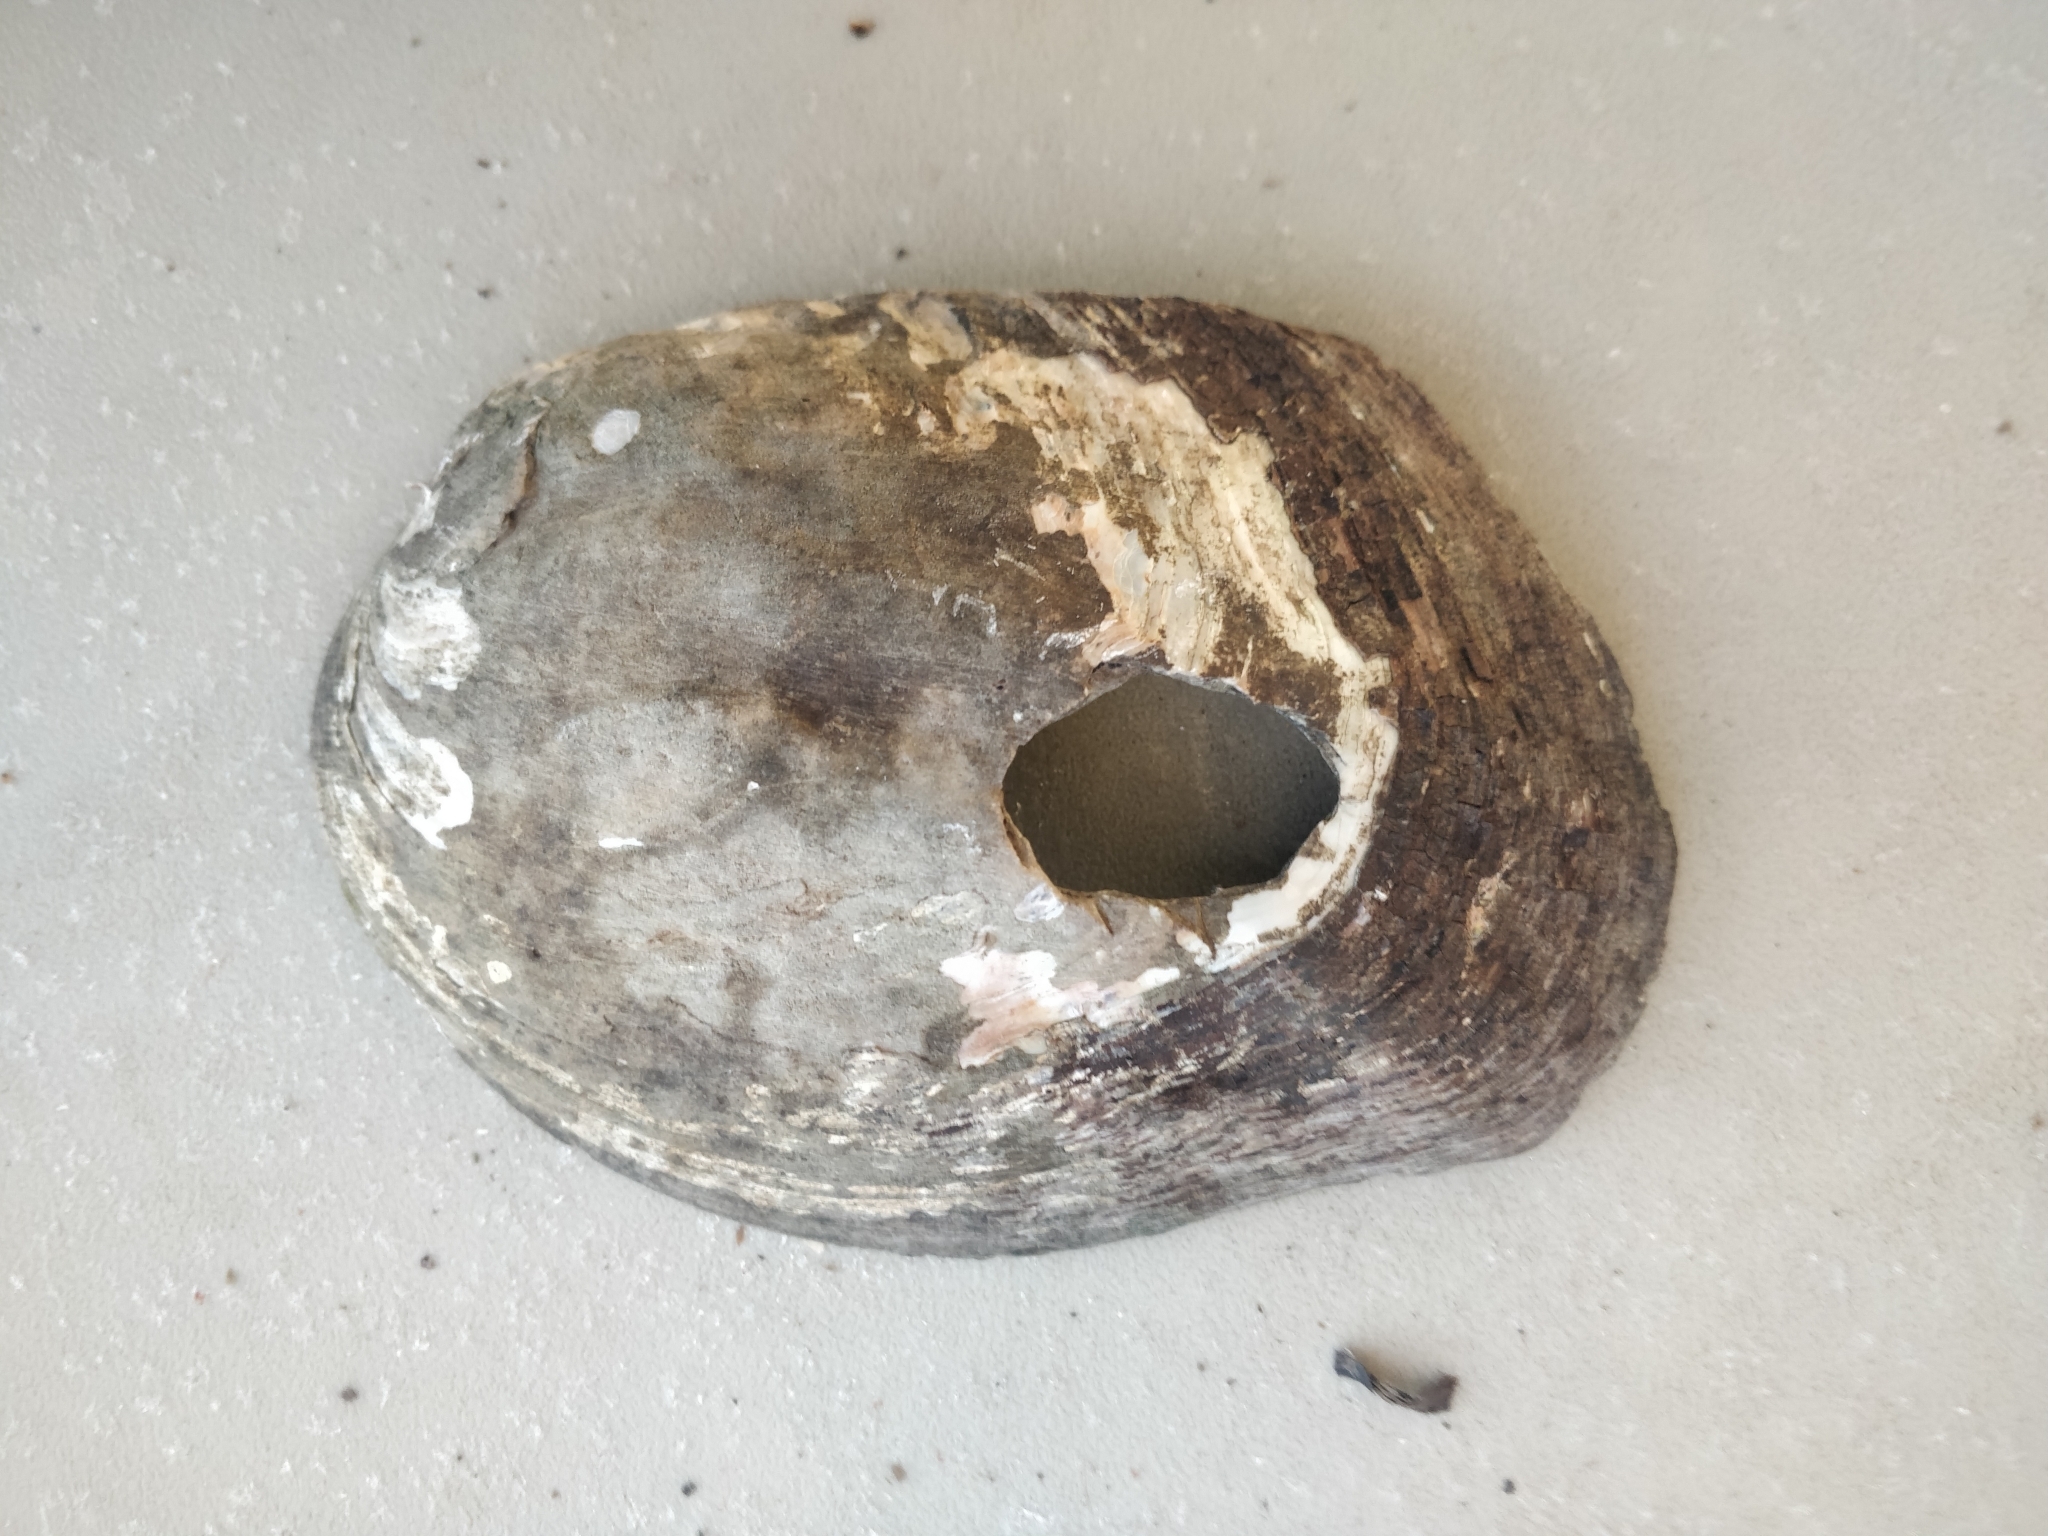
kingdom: Animalia
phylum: Mollusca
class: Bivalvia
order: Unionida
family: Unionidae
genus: Amblema
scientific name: Amblema plicata
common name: Threeridge
